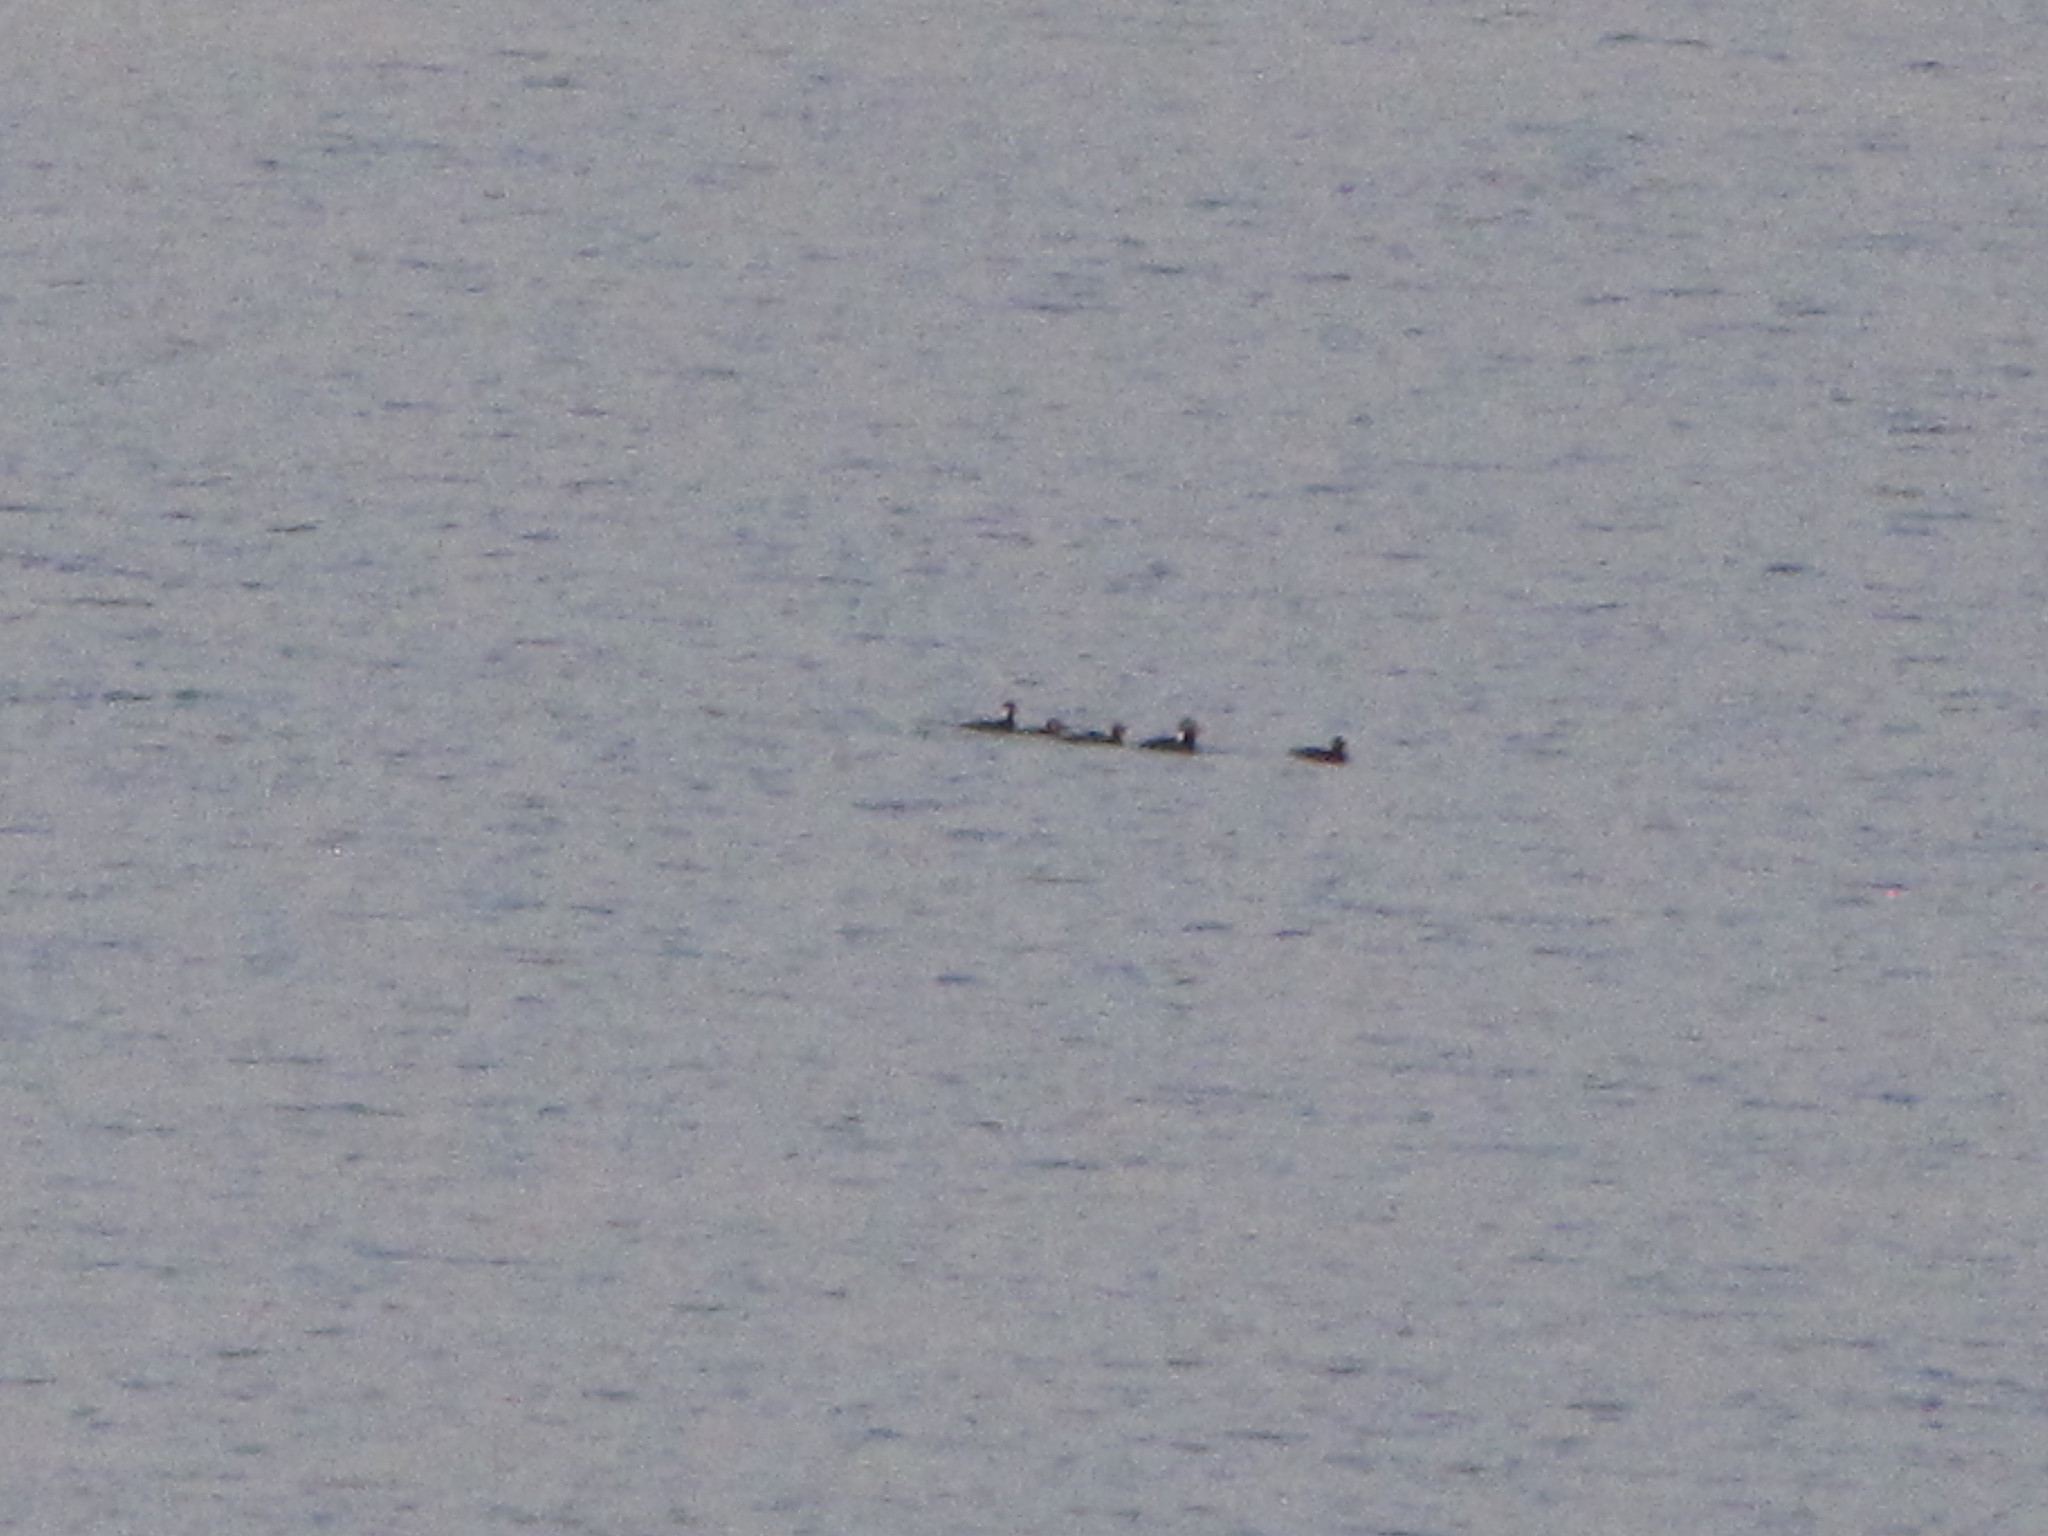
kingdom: Animalia
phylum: Chordata
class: Aves
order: Anseriformes
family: Anatidae
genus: Melanitta
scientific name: Melanitta perspicillata
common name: Surf scoter
